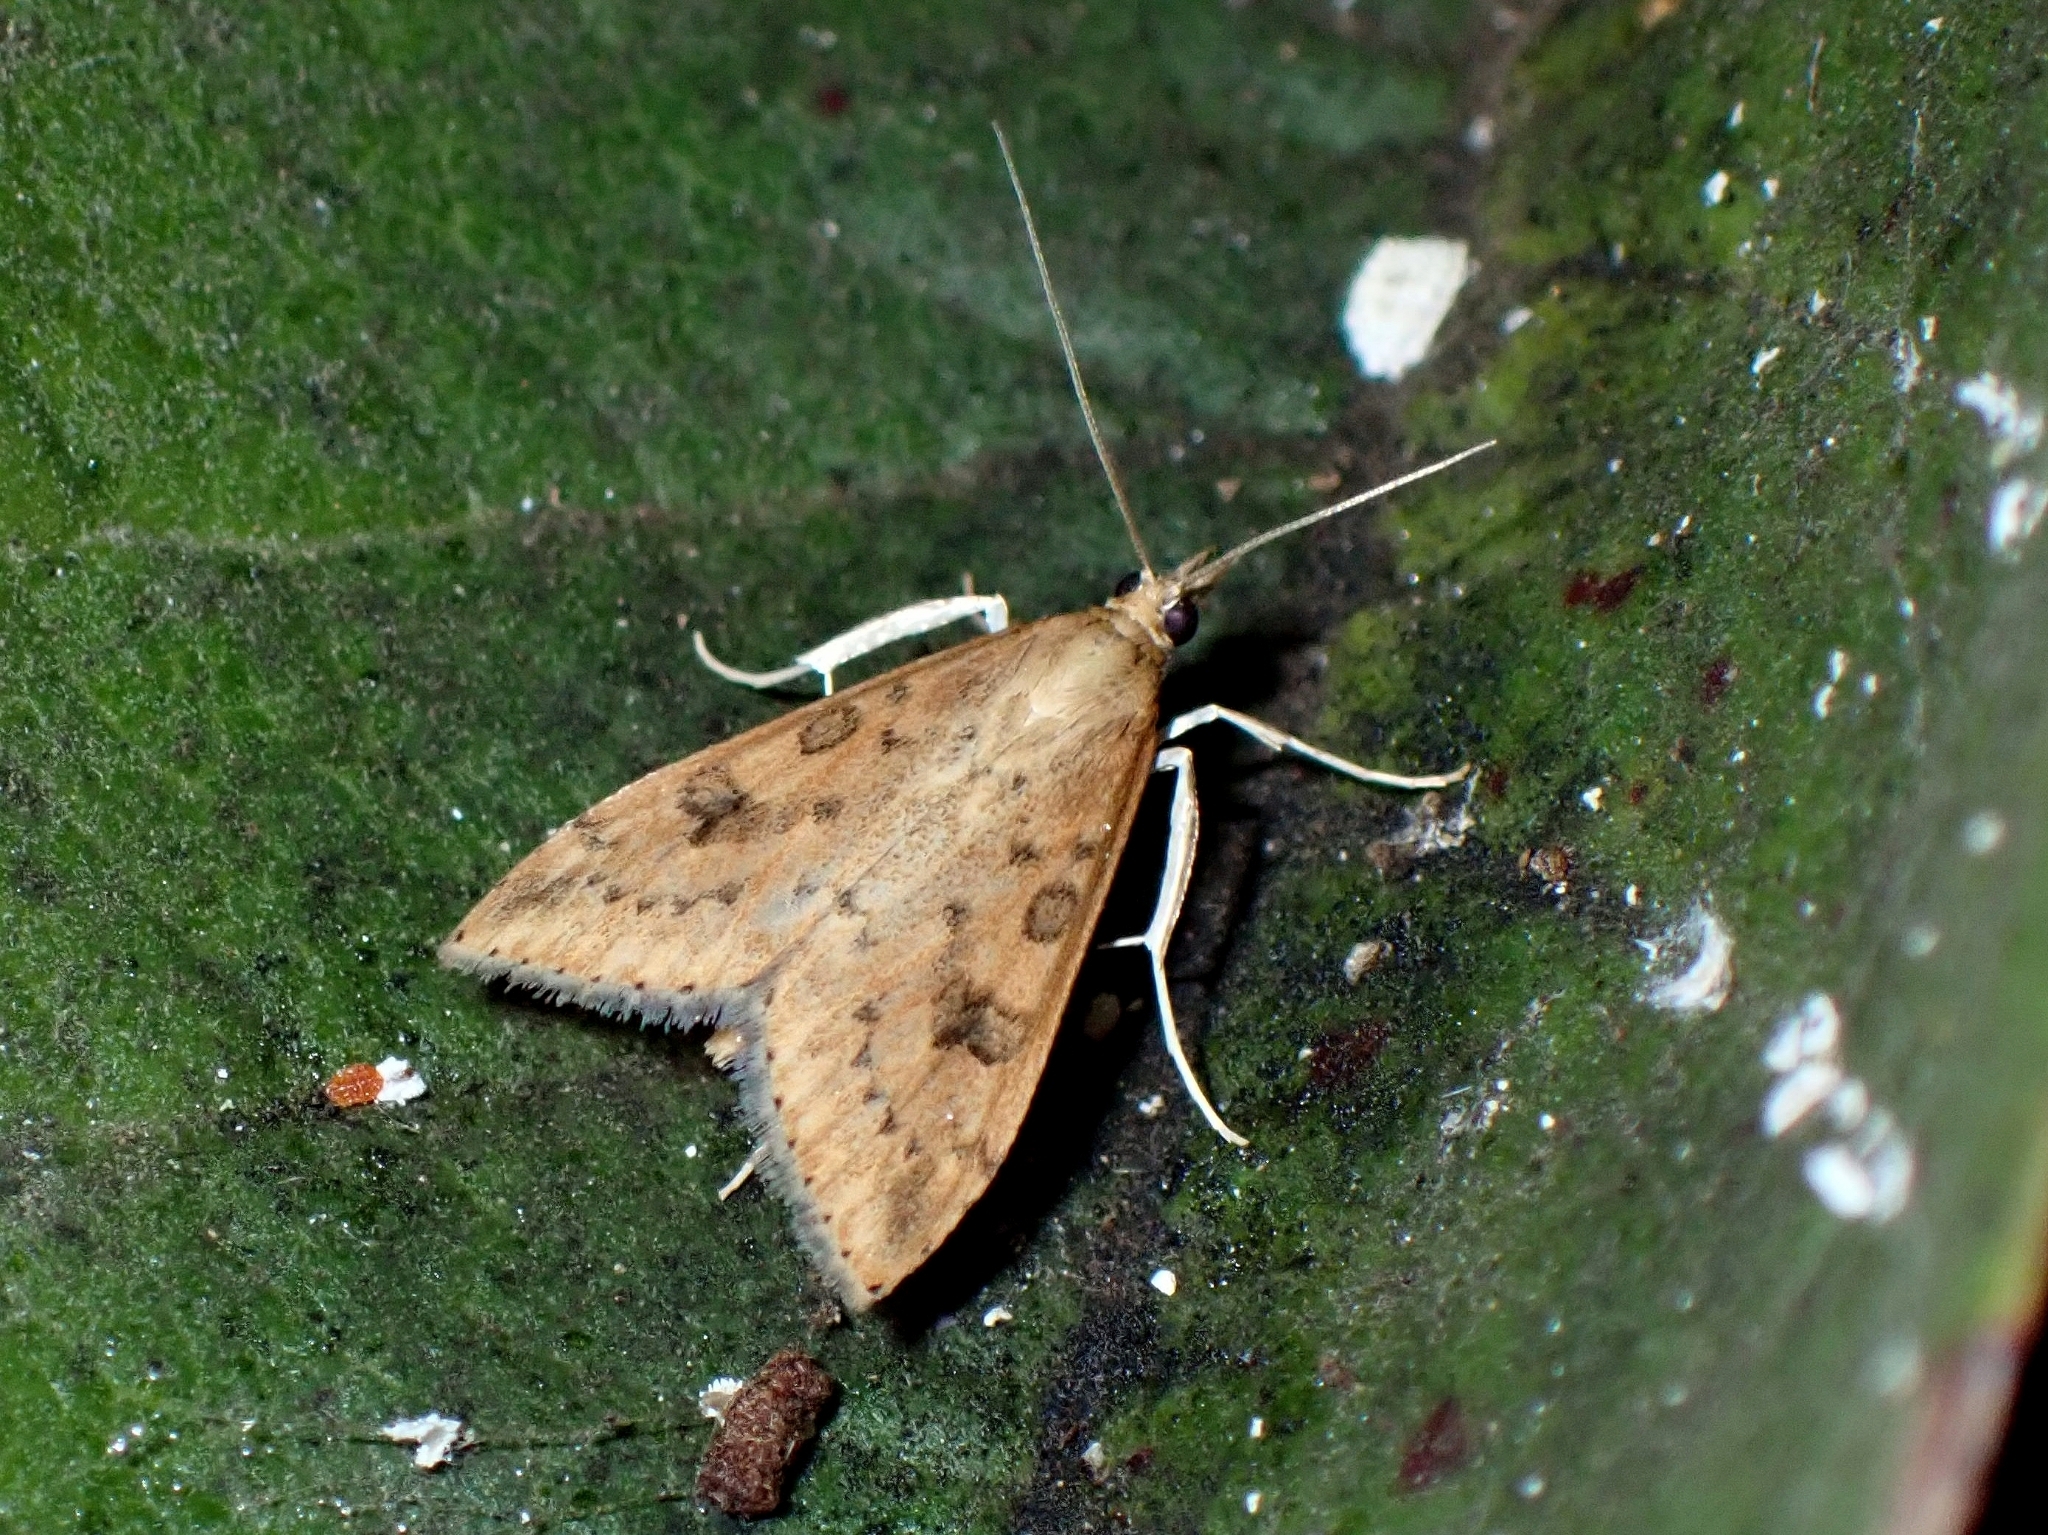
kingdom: Animalia
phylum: Arthropoda
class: Insecta
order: Lepidoptera
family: Crambidae
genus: Udea
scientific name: Udea ferrugalis
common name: Rusty dot
